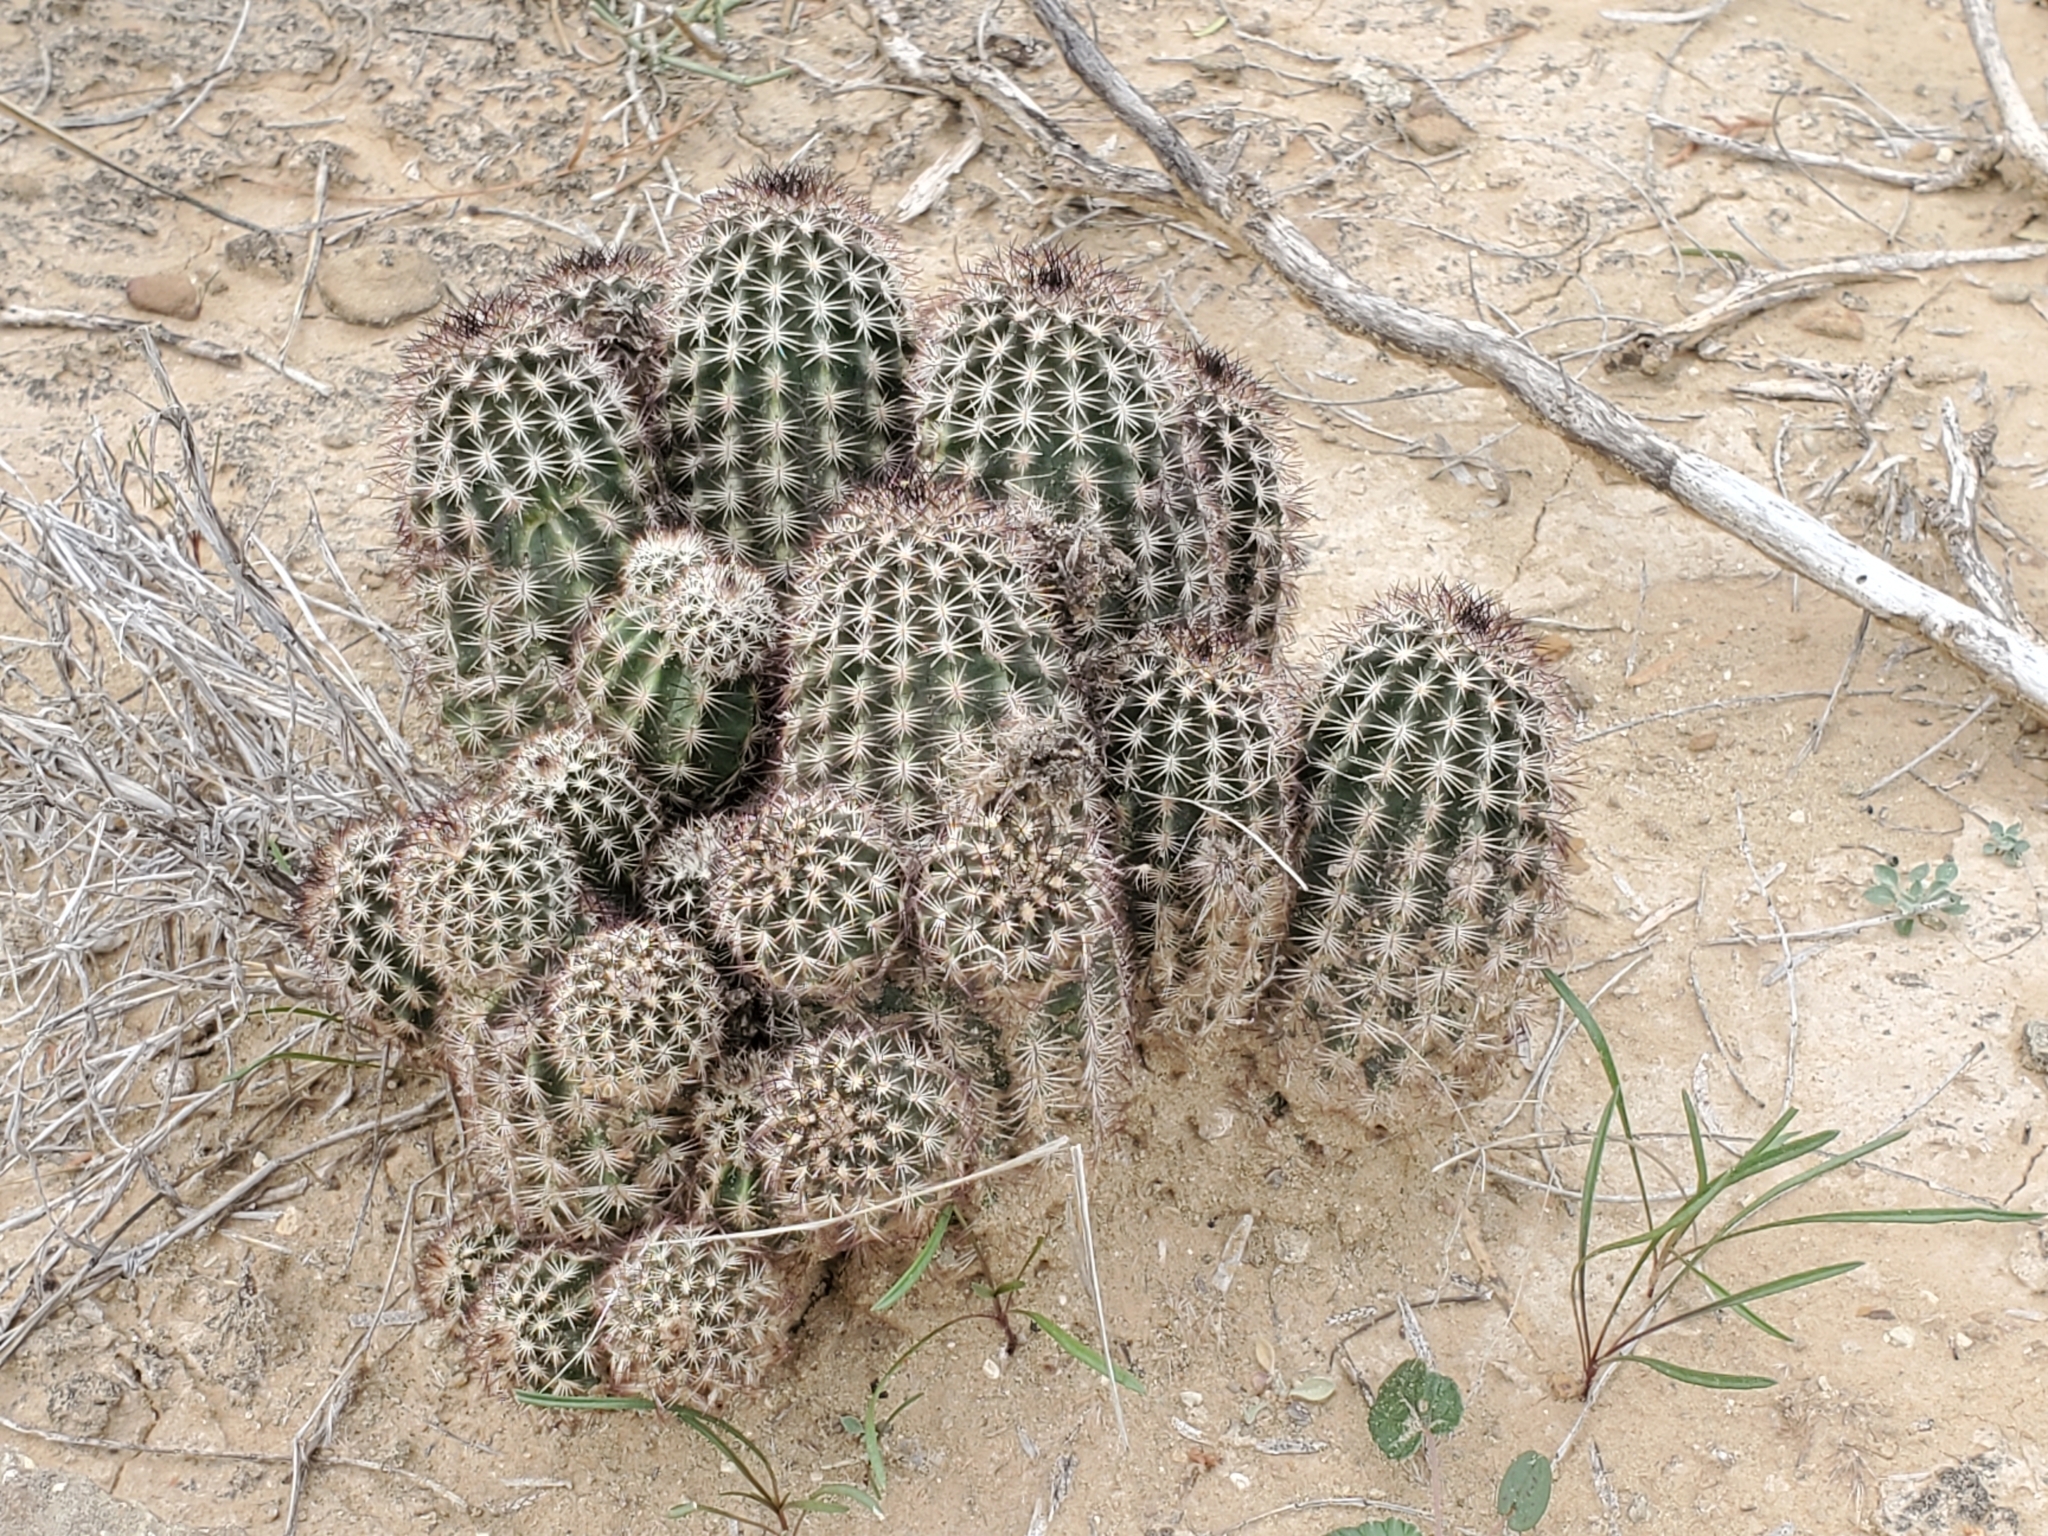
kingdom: Plantae
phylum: Tracheophyta
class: Magnoliopsida
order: Caryophyllales
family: Cactaceae
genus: Echinocereus
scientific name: Echinocereus reichenbachii
